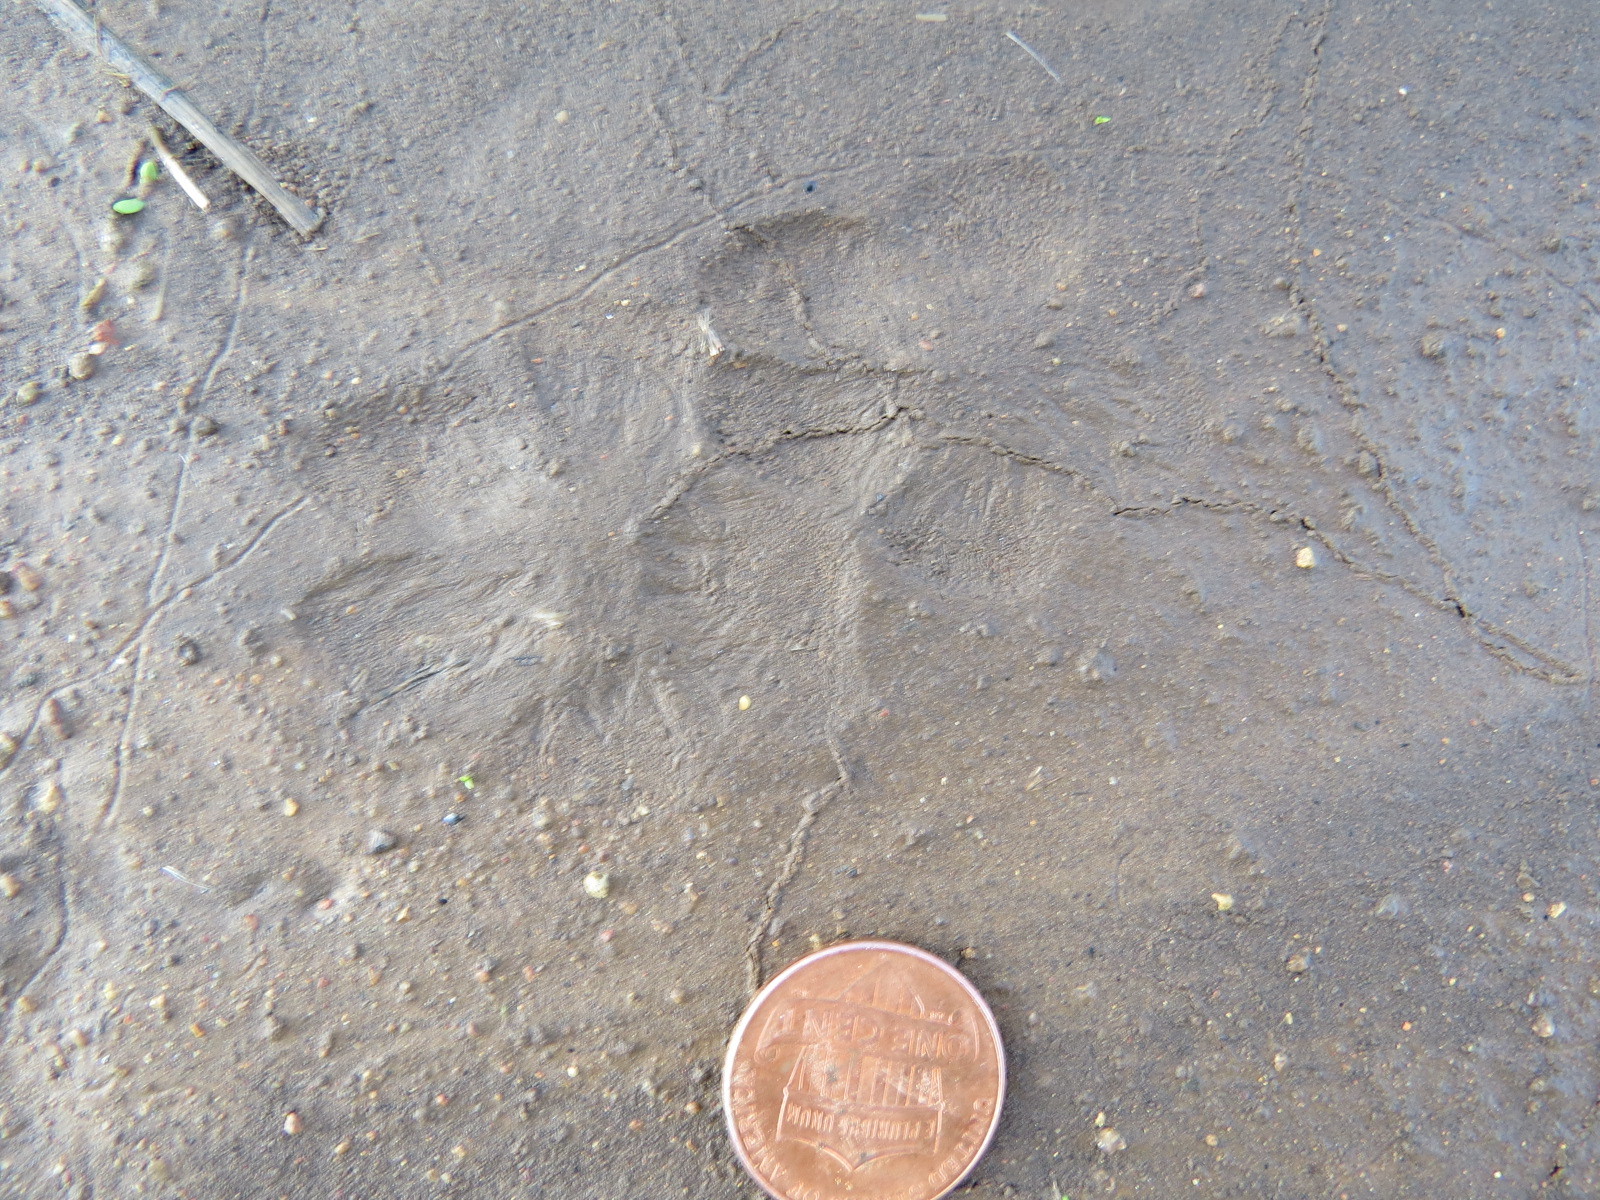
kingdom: Animalia
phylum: Chordata
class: Mammalia
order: Carnivora
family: Canidae
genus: Urocyon
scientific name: Urocyon cinereoargenteus
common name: Gray fox
